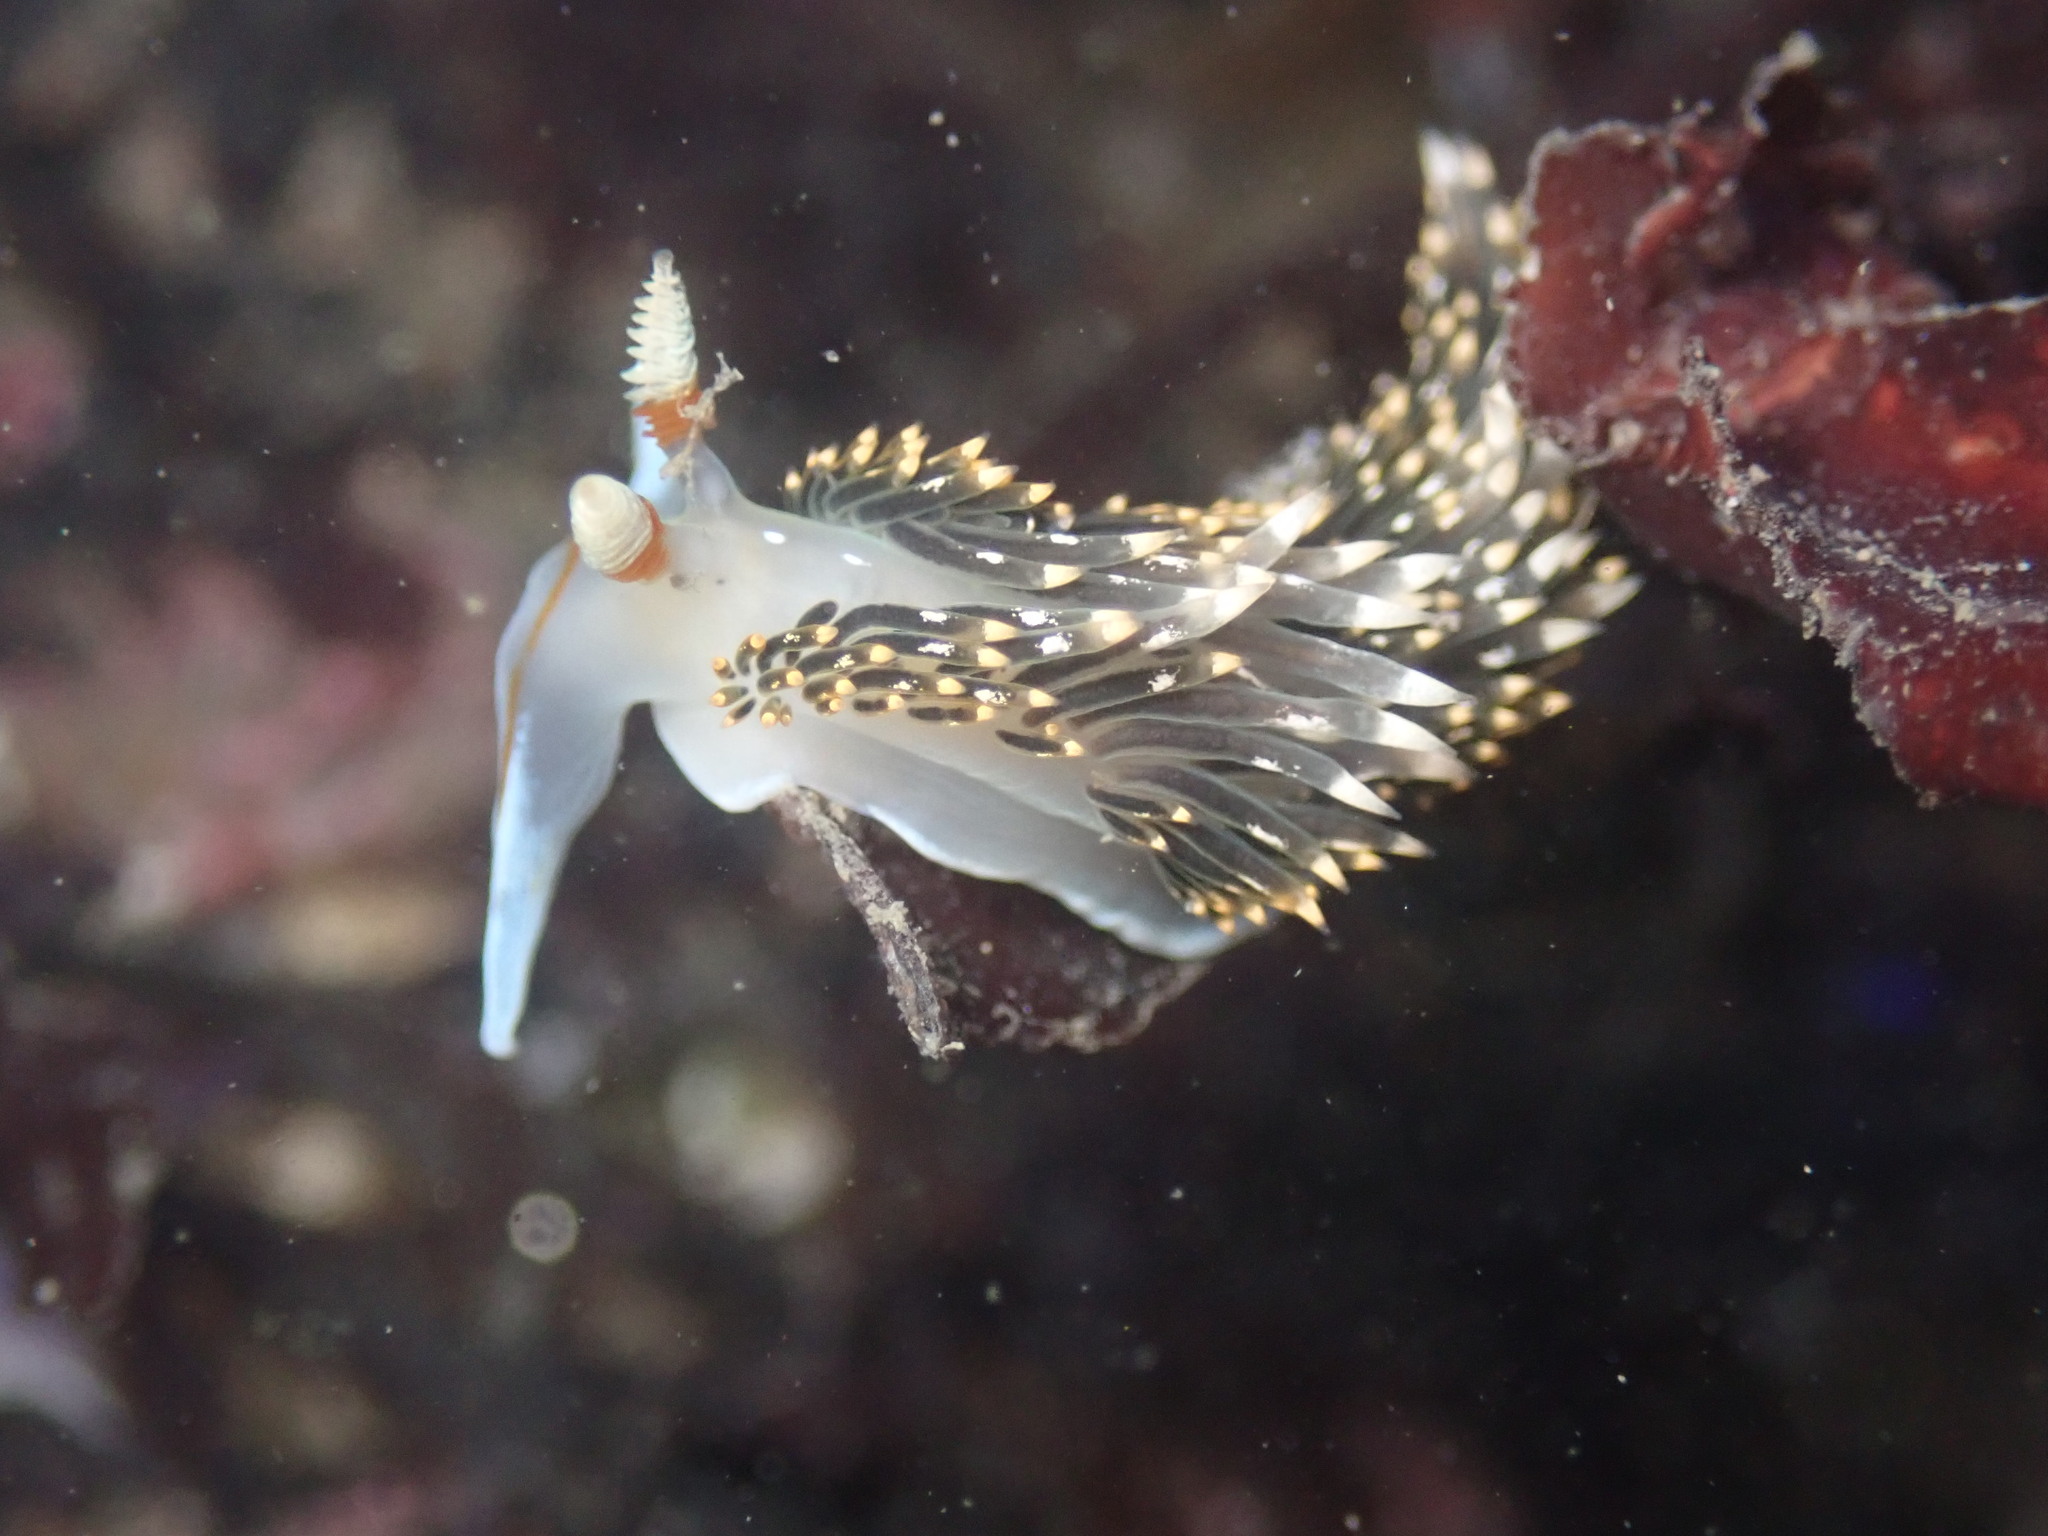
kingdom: Animalia
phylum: Mollusca
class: Gastropoda
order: Nudibranchia
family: Facelinidae
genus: Phidiana
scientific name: Phidiana hiltoni
